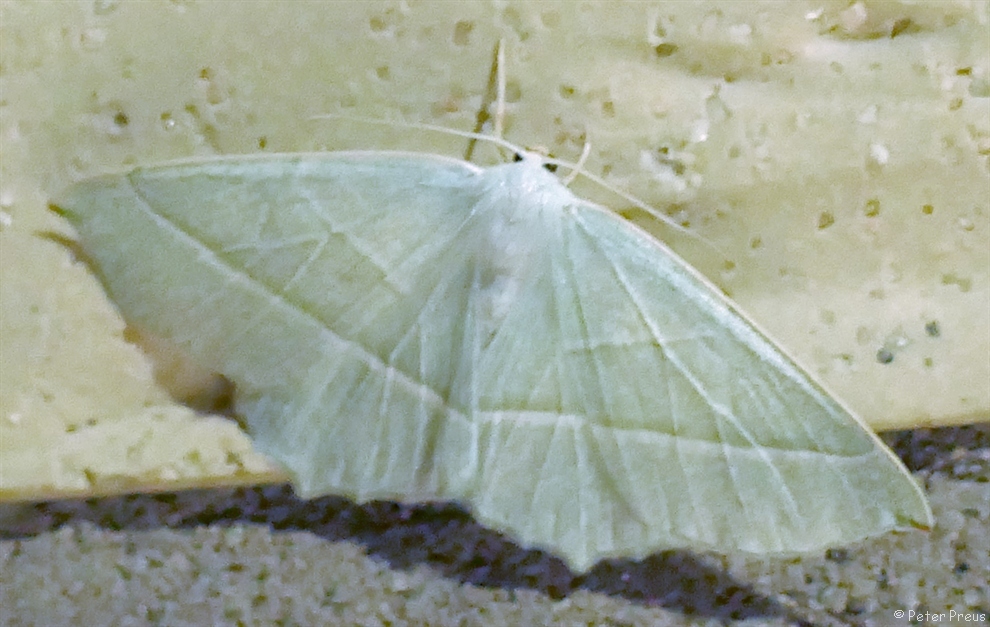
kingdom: Animalia
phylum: Arthropoda
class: Insecta
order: Lepidoptera
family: Geometridae
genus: Campaea
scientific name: Campaea margaritaria
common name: Light emerald
